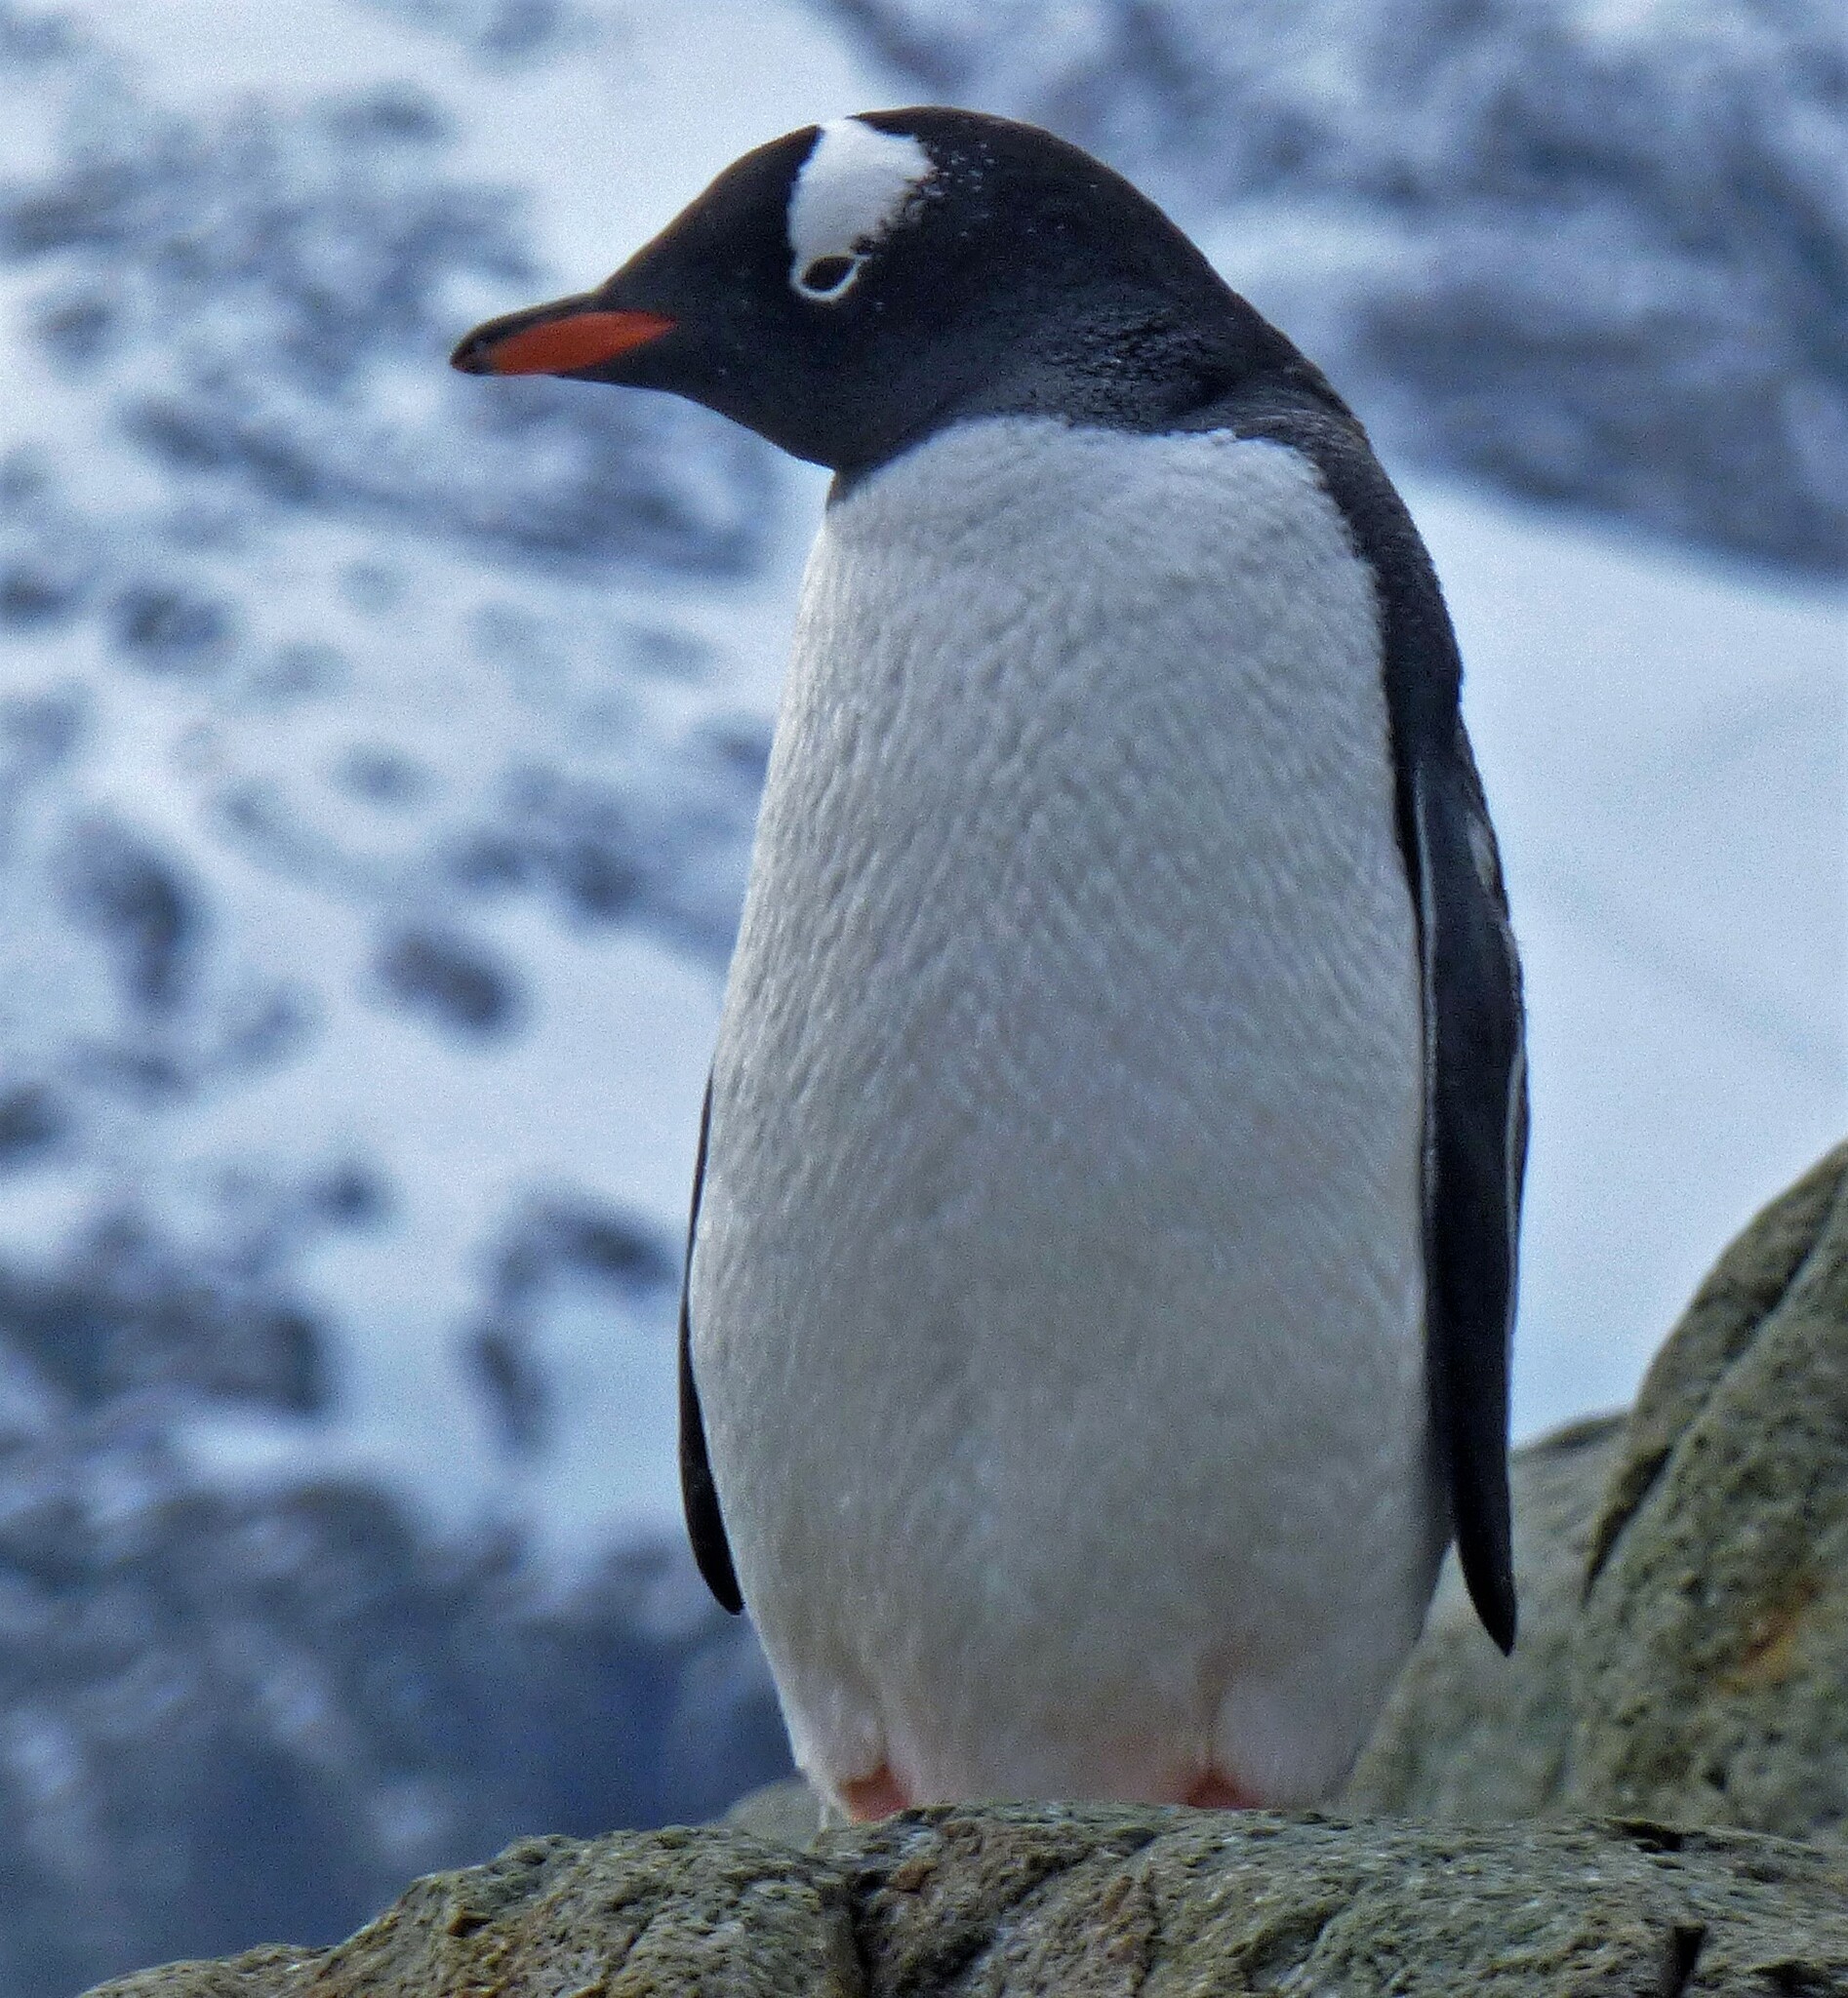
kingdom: Animalia
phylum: Chordata
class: Aves
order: Sphenisciformes
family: Spheniscidae
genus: Pygoscelis
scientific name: Pygoscelis papua
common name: Gentoo penguin
